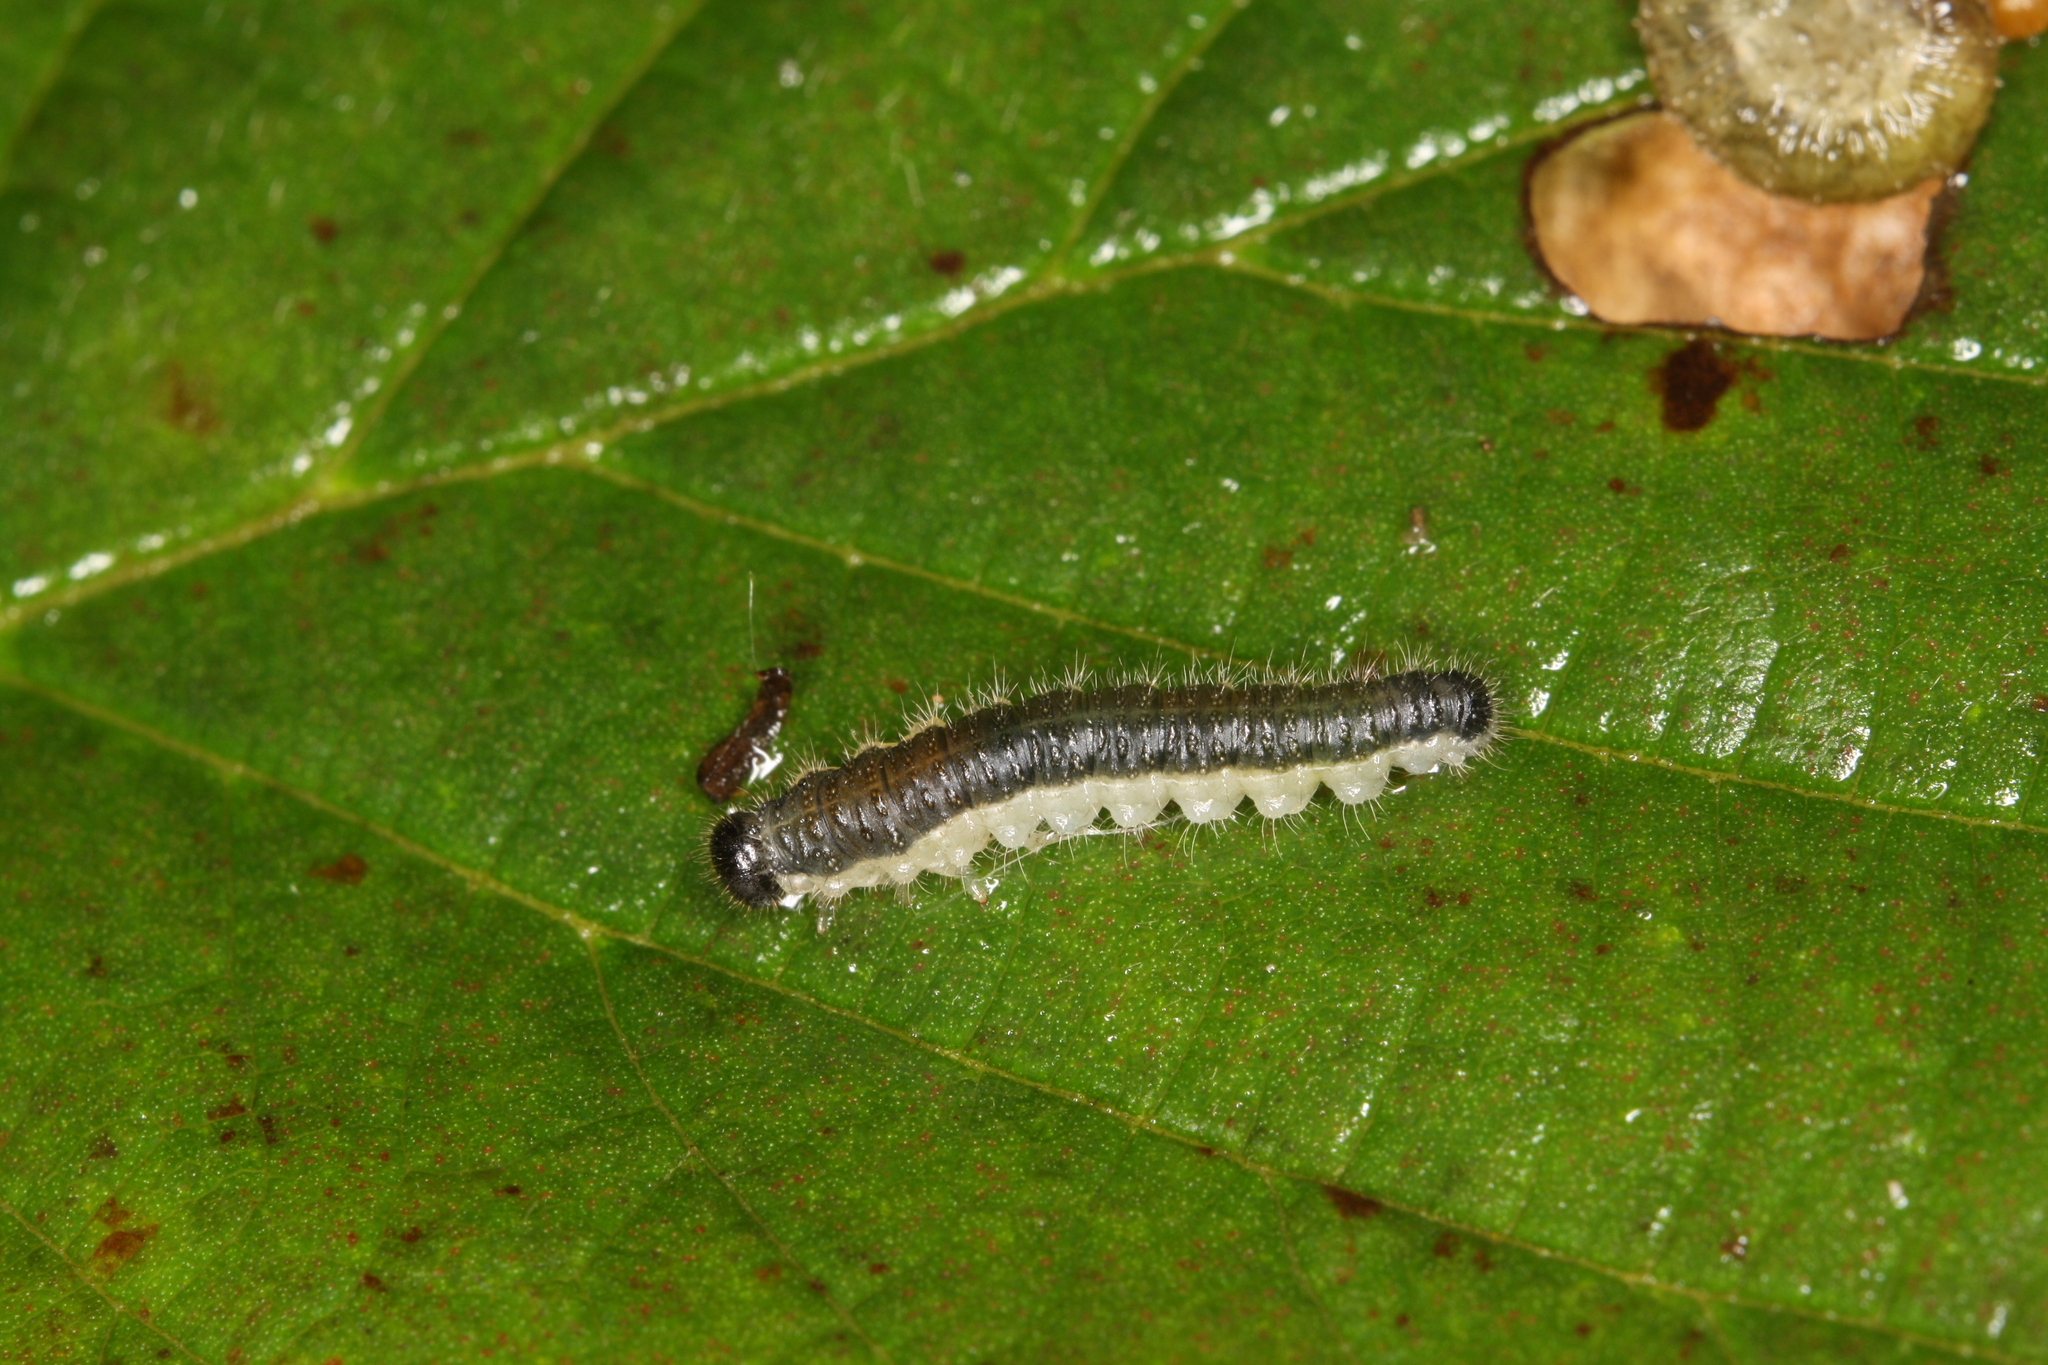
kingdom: Animalia
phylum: Arthropoda
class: Insecta
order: Hymenoptera
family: Tenthredinidae
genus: Cladius
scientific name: Cladius brullei
